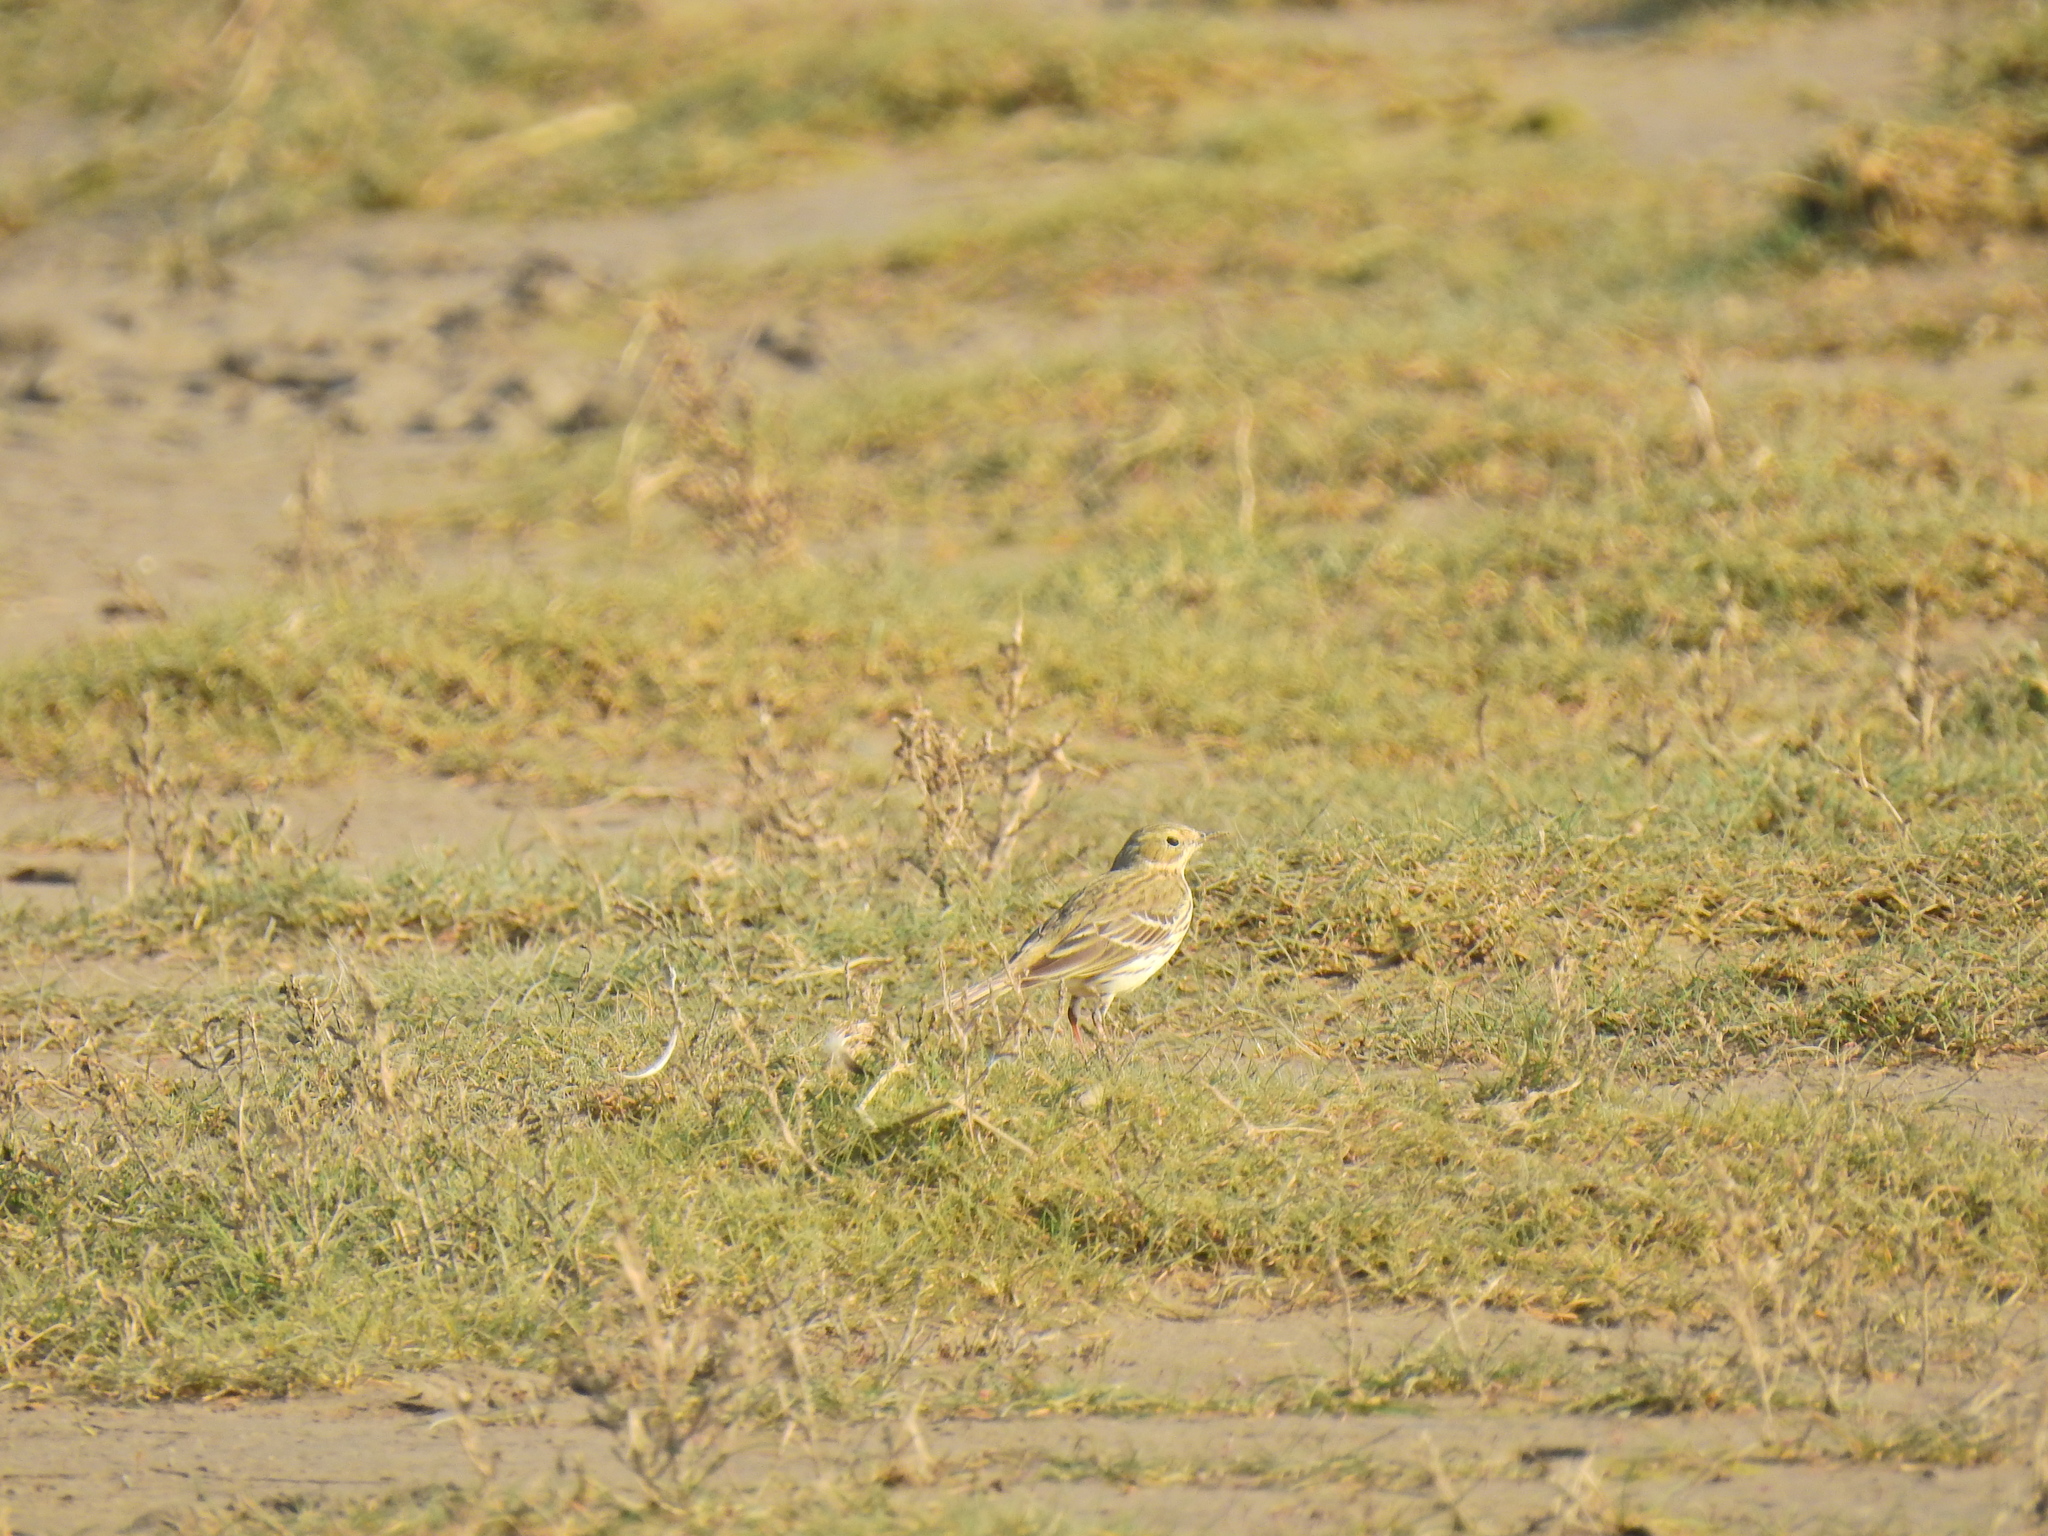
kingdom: Animalia
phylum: Chordata
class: Aves
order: Passeriformes
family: Motacillidae
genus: Anthus
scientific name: Anthus pratensis
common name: Meadow pipit
